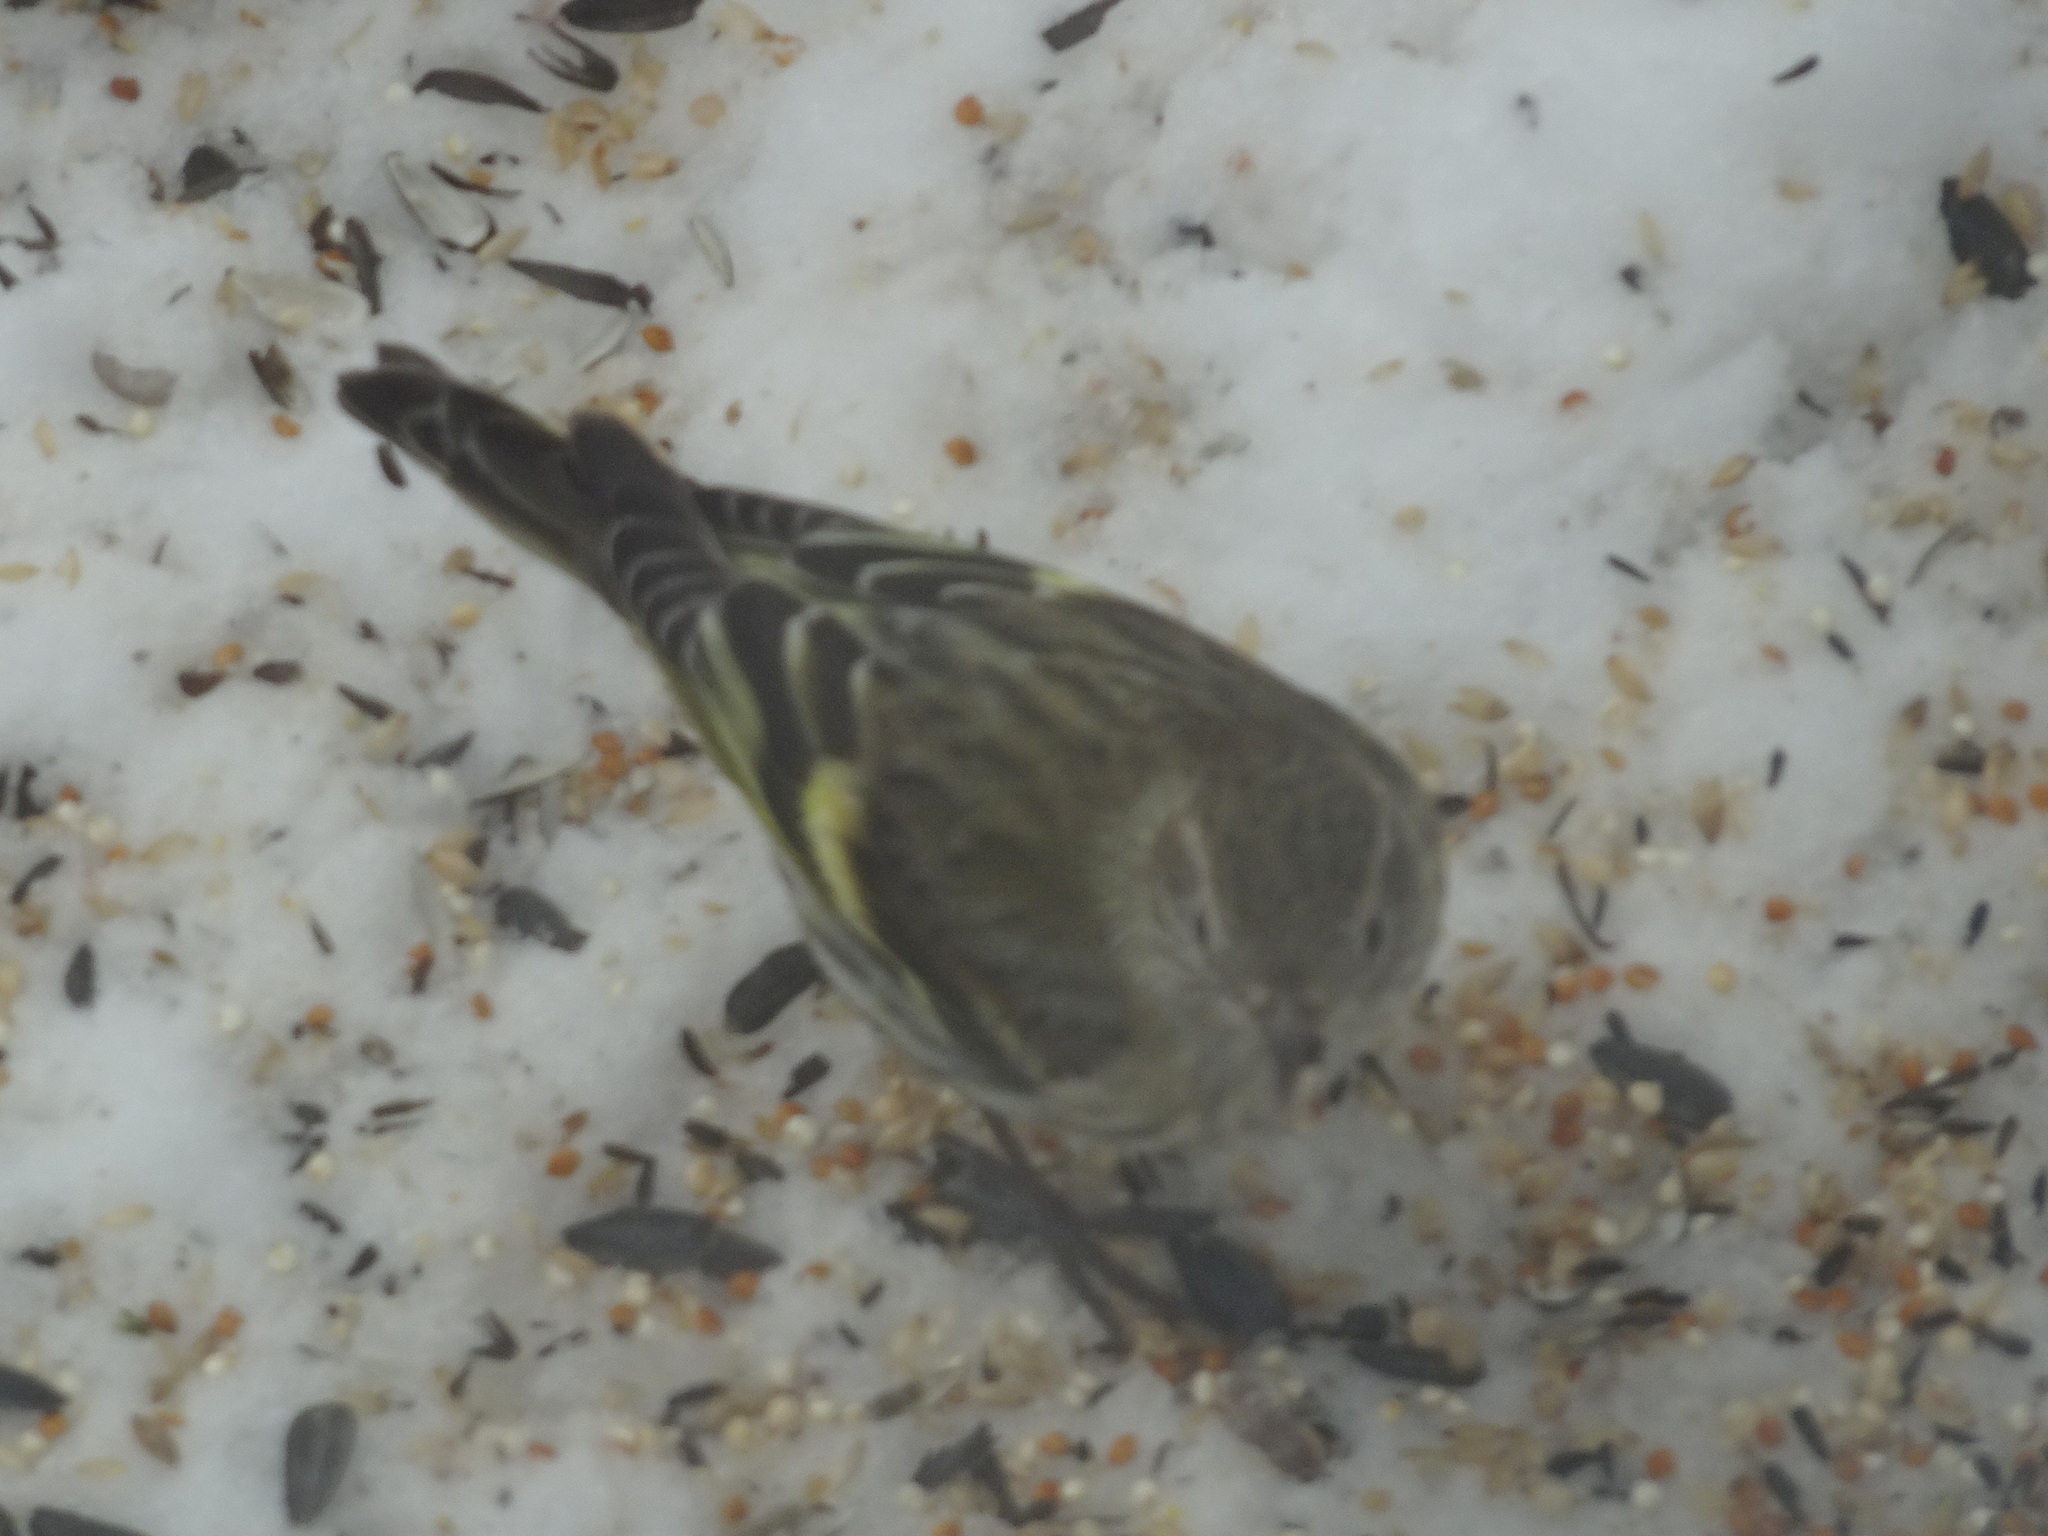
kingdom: Animalia
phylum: Chordata
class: Aves
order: Passeriformes
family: Fringillidae
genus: Spinus
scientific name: Spinus pinus
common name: Pine siskin
